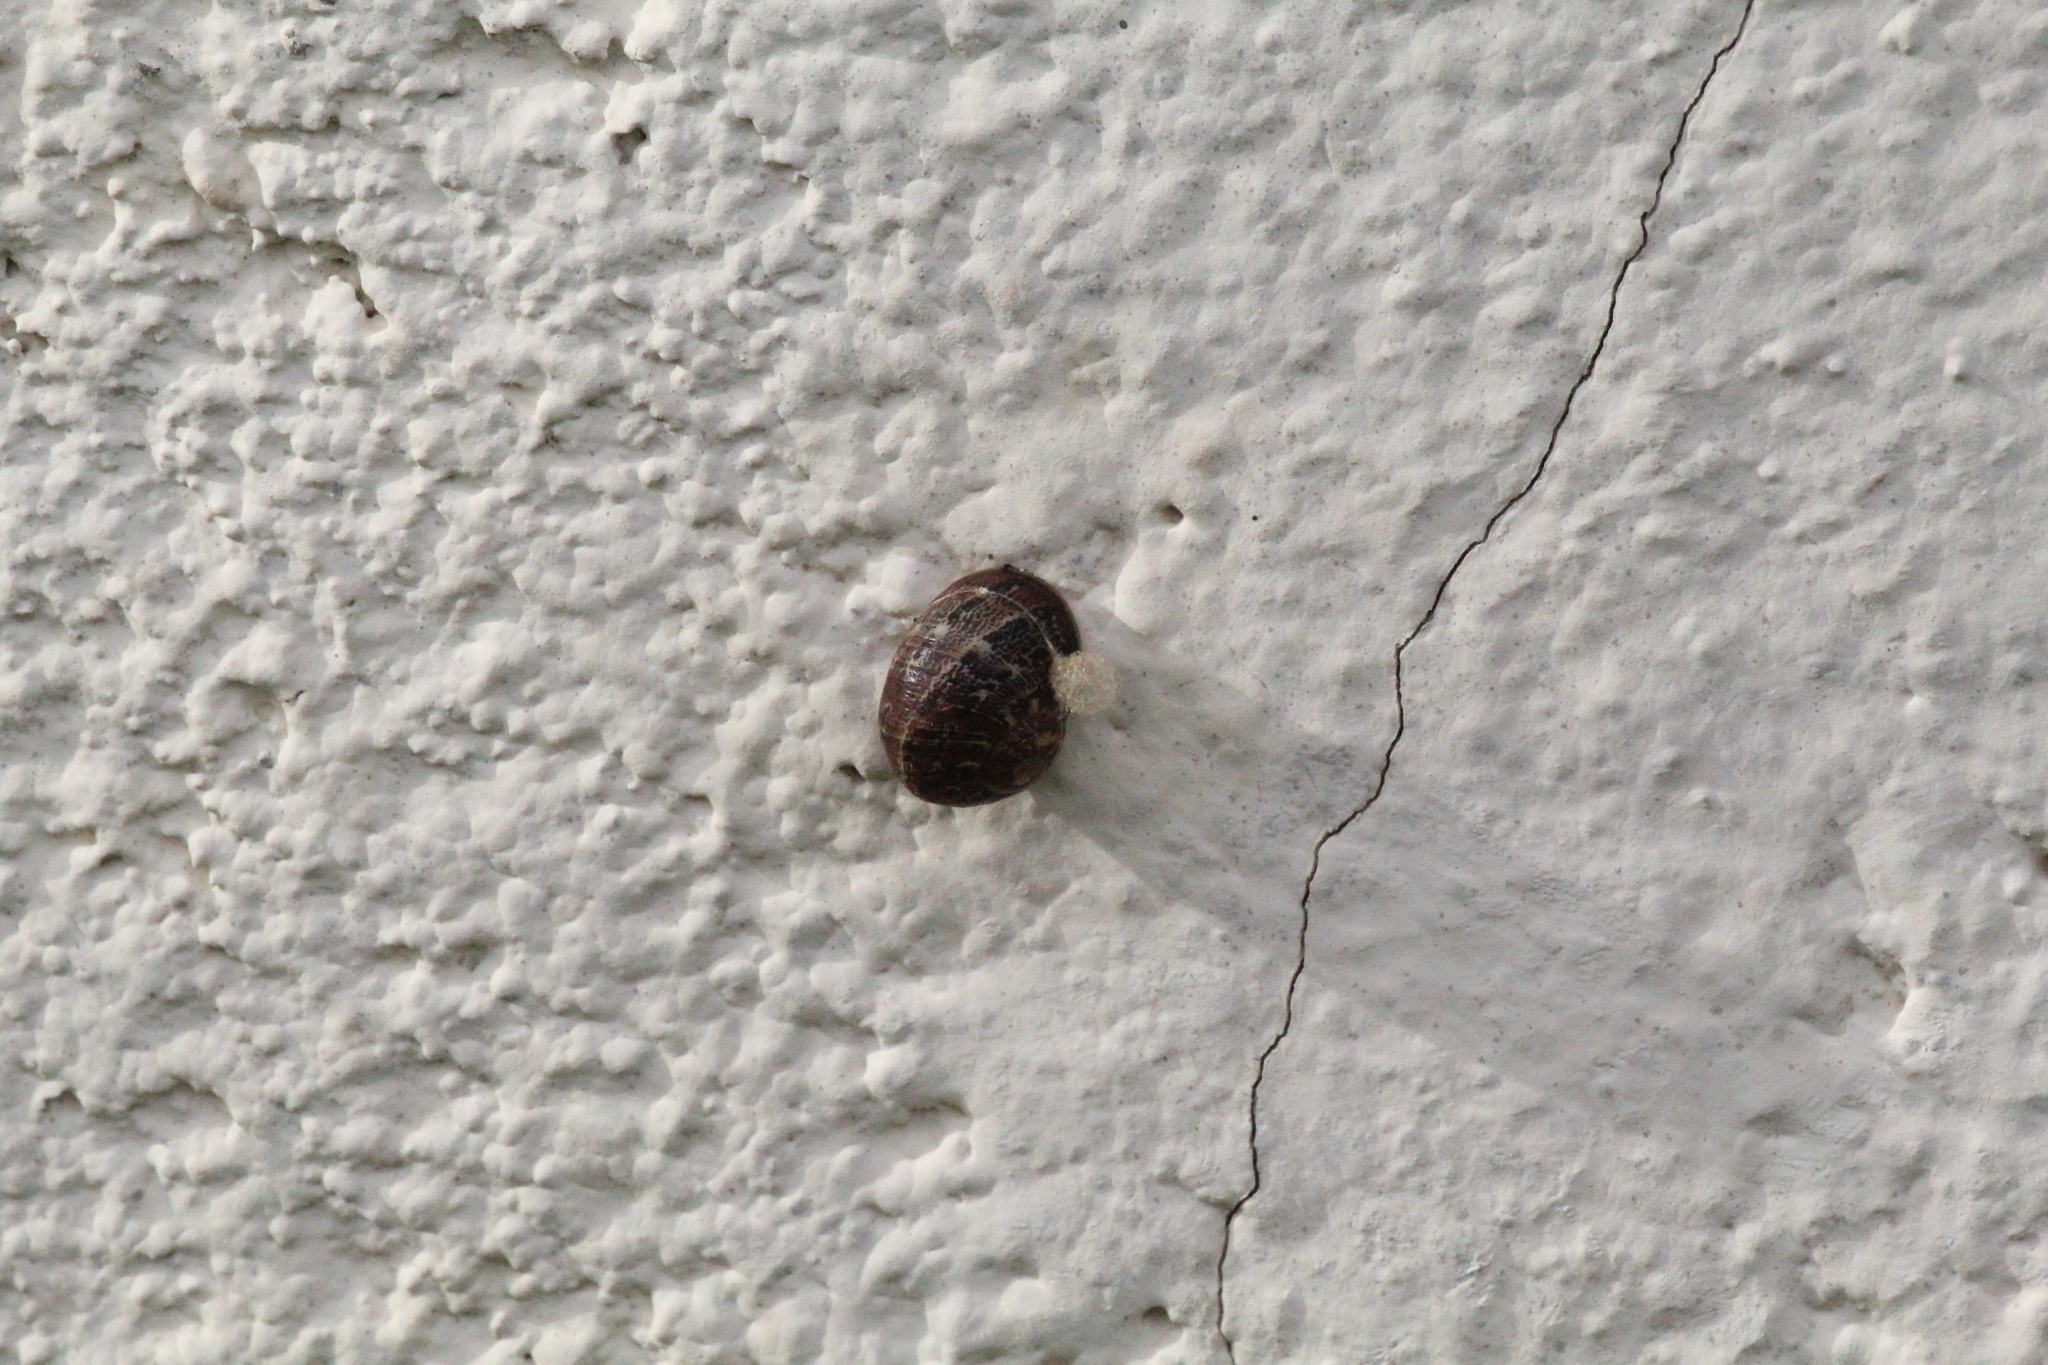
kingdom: Animalia
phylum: Mollusca
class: Gastropoda
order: Stylommatophora
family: Helicidae
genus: Cornu
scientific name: Cornu aspersum
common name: Brown garden snail
